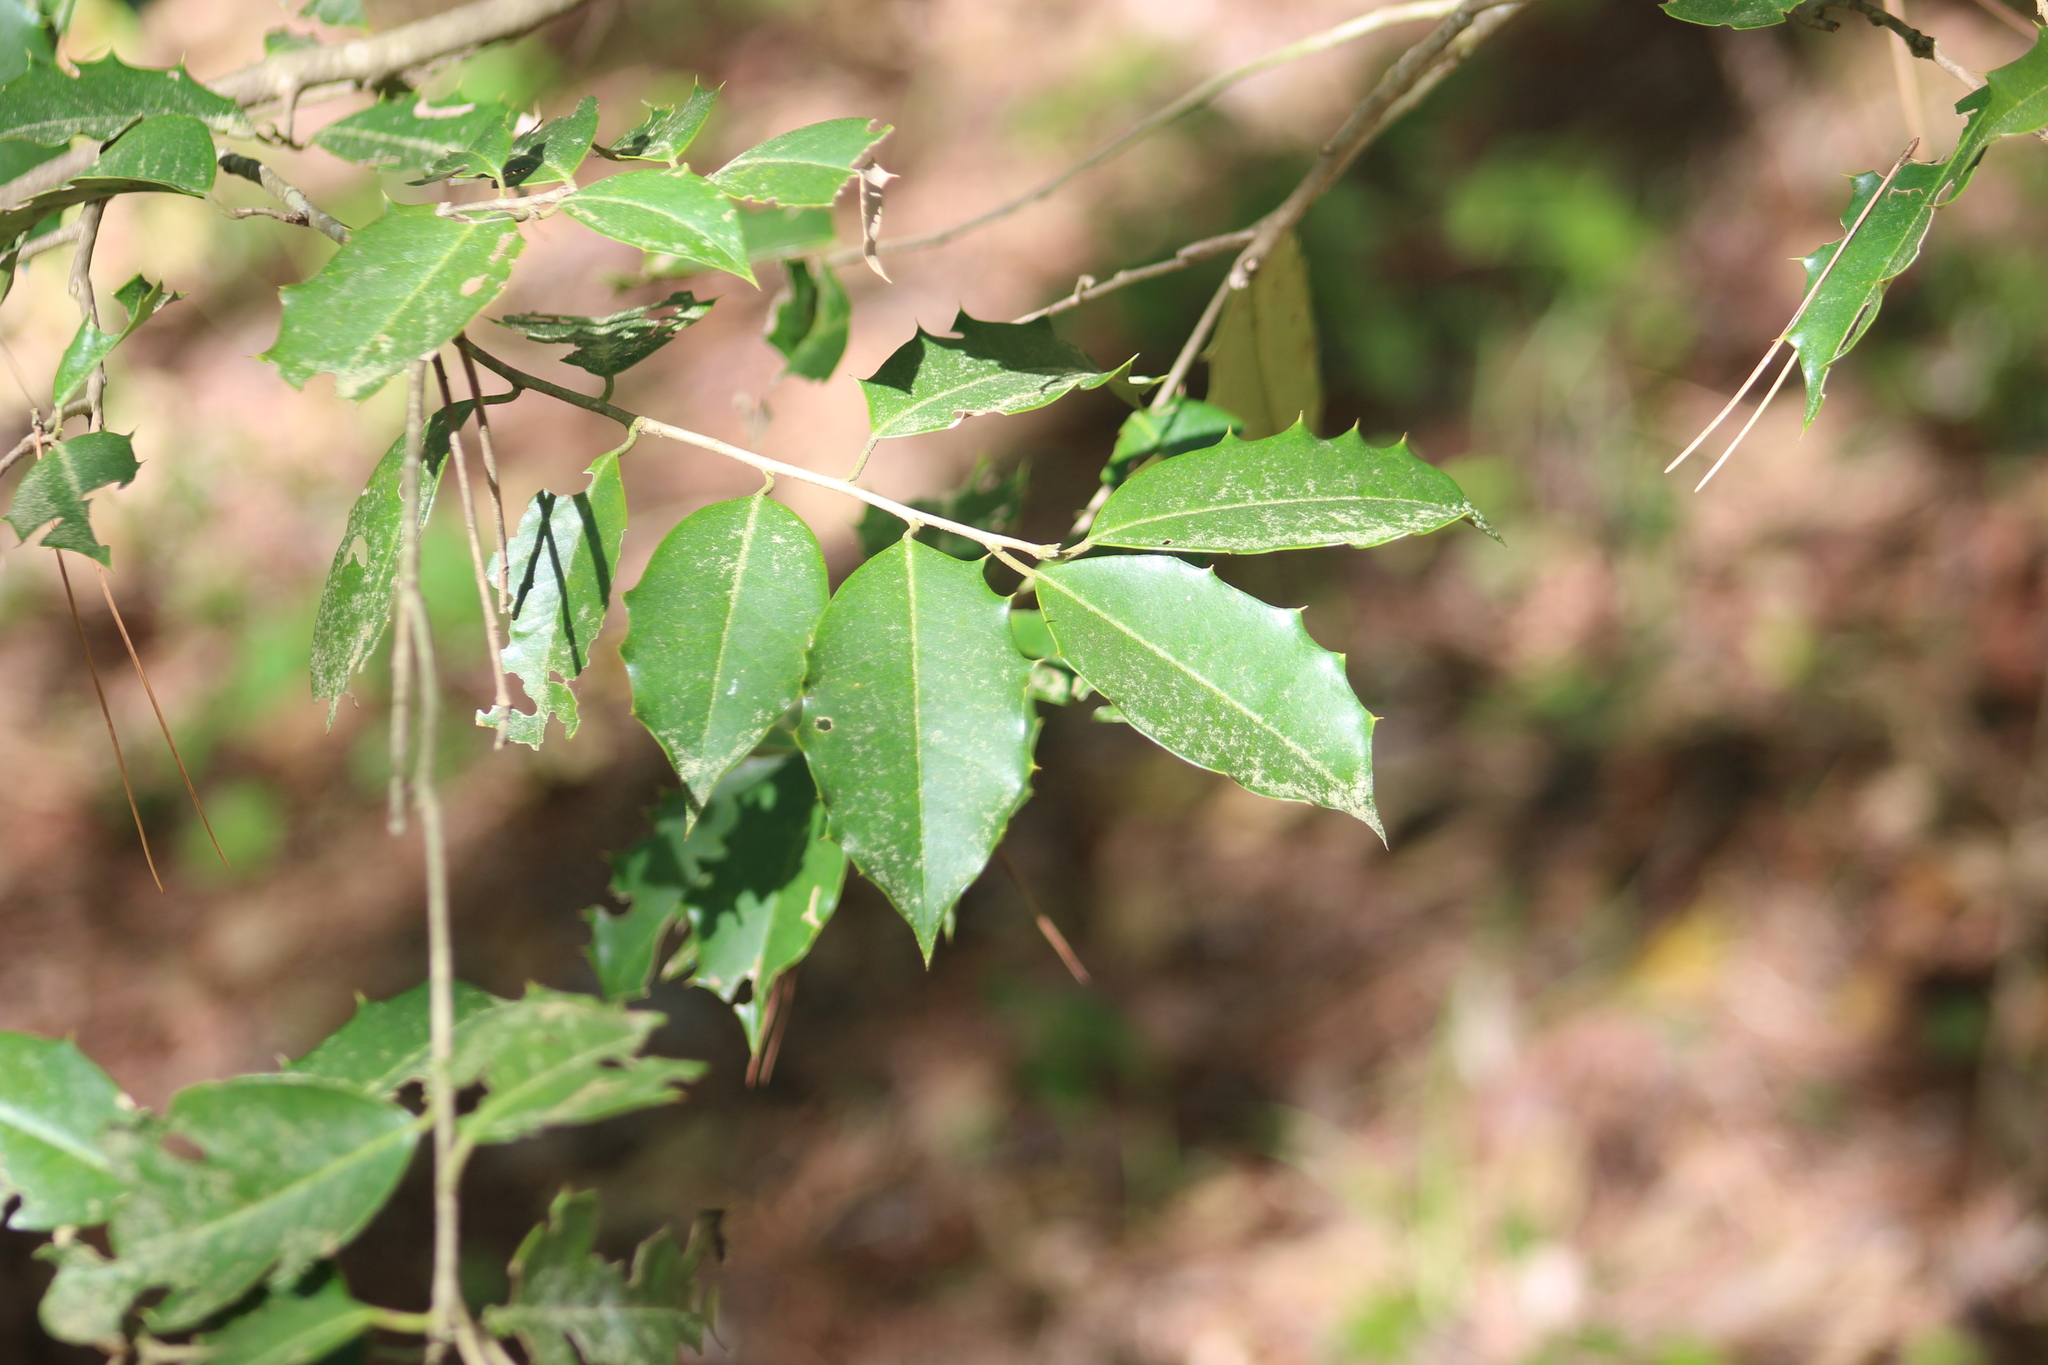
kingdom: Plantae
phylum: Tracheophyta
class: Magnoliopsida
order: Aquifoliales
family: Aquifoliaceae
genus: Ilex
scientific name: Ilex opaca
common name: American holly
